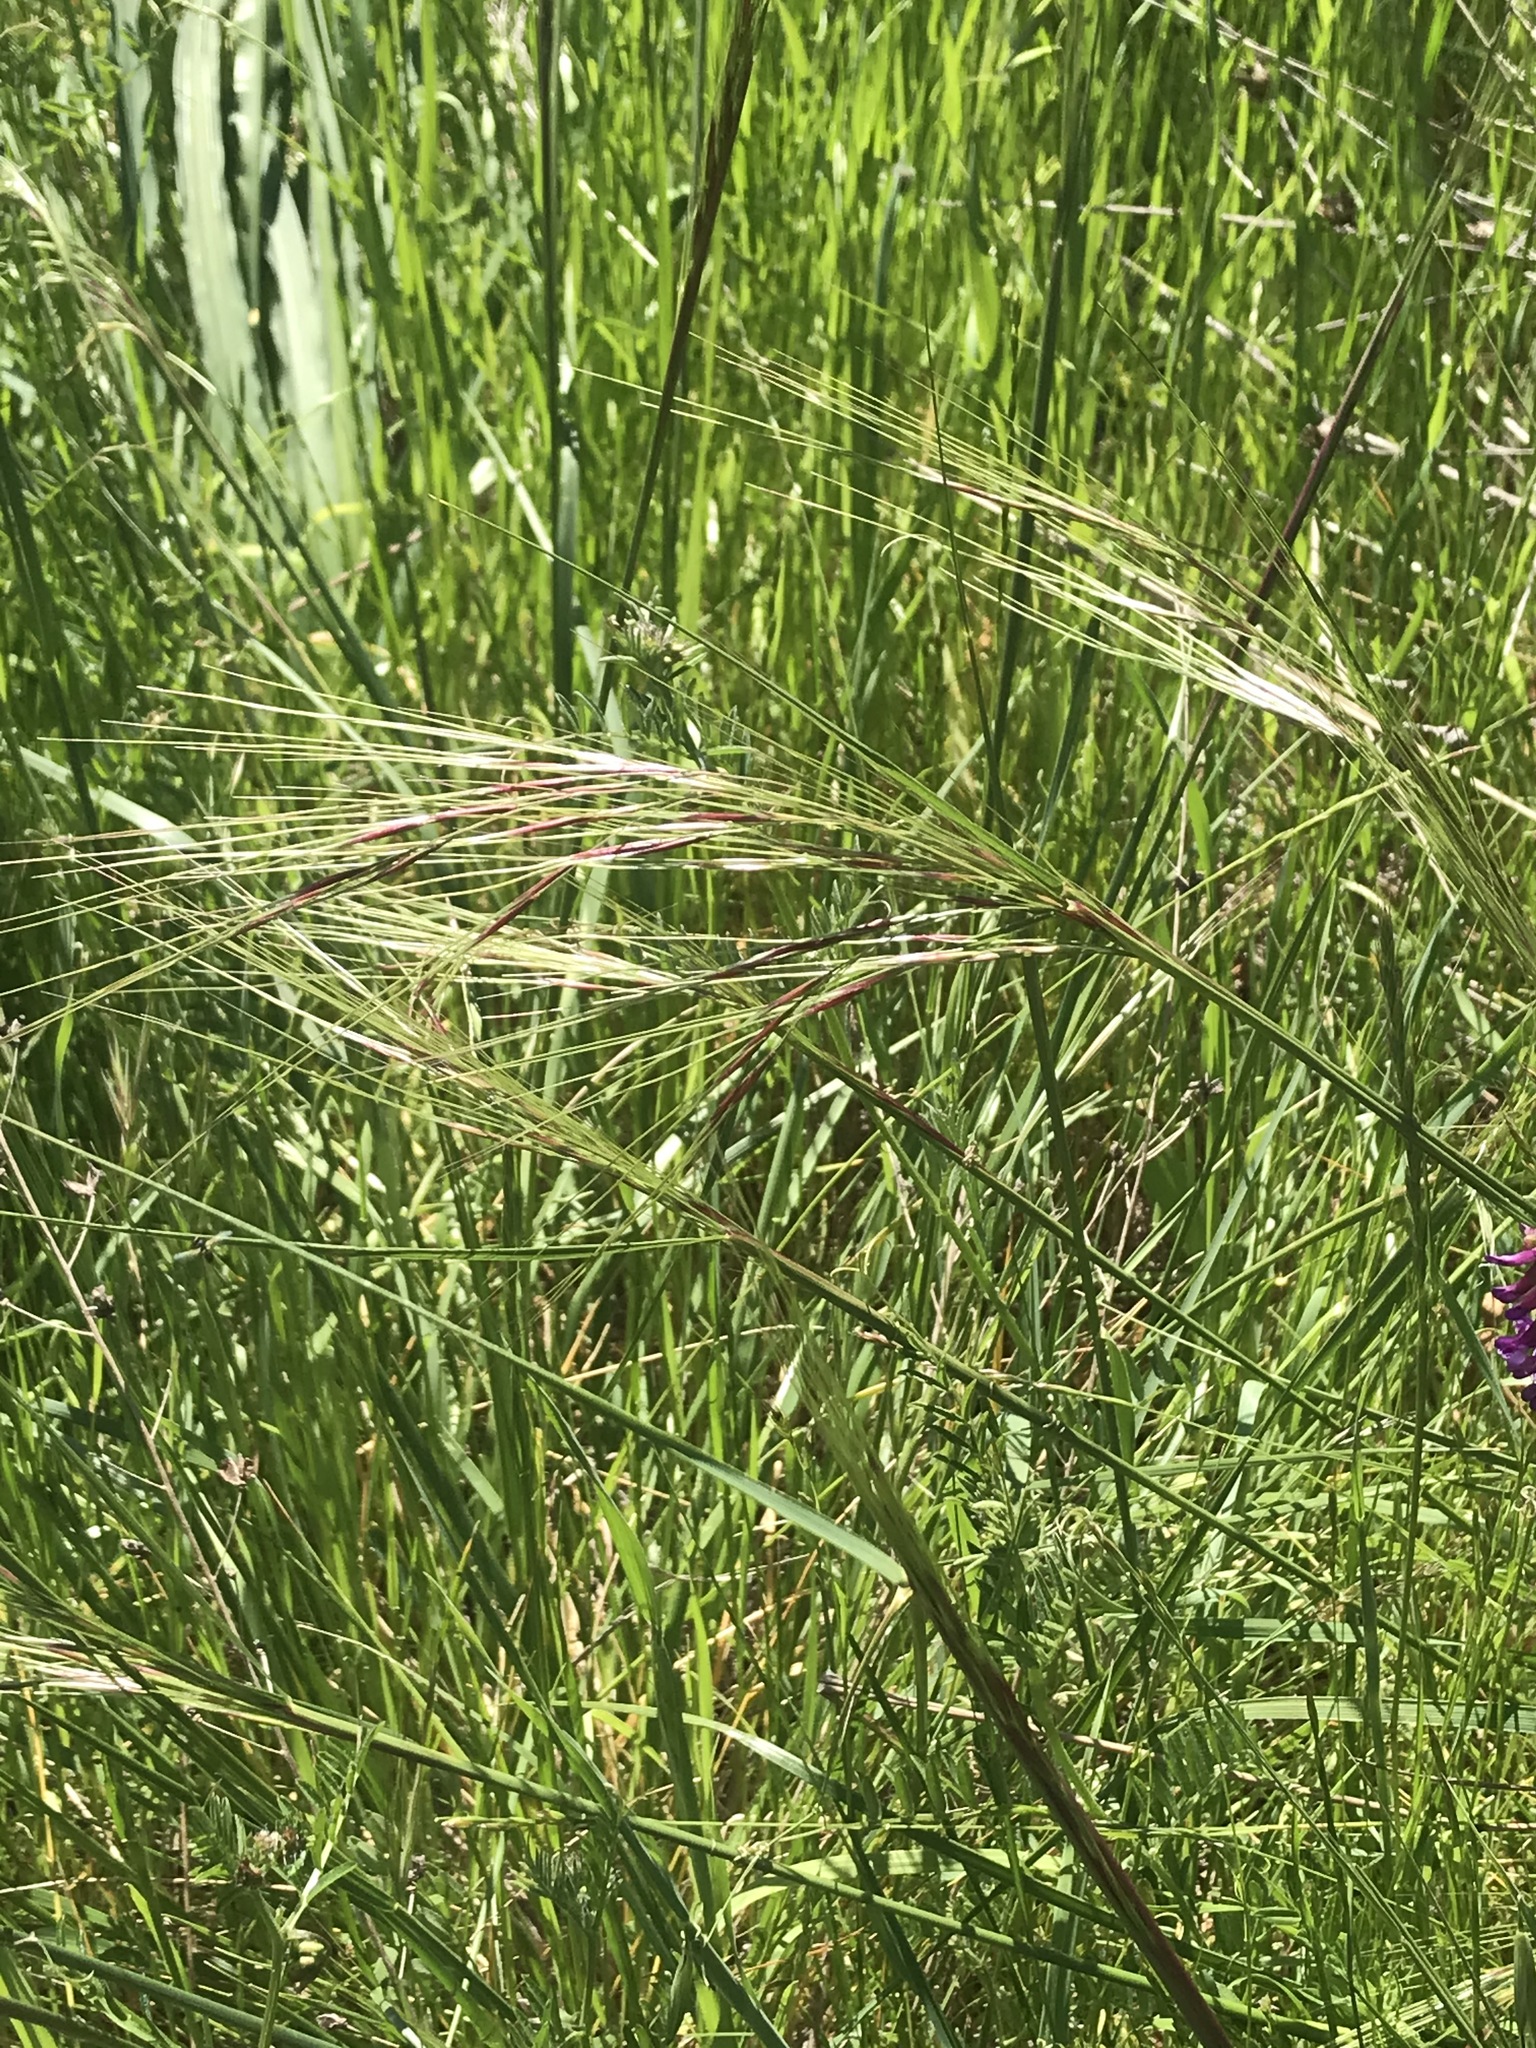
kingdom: Plantae
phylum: Tracheophyta
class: Liliopsida
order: Poales
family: Poaceae
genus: Nassella
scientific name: Nassella pulchra
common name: Purple needlegrass
